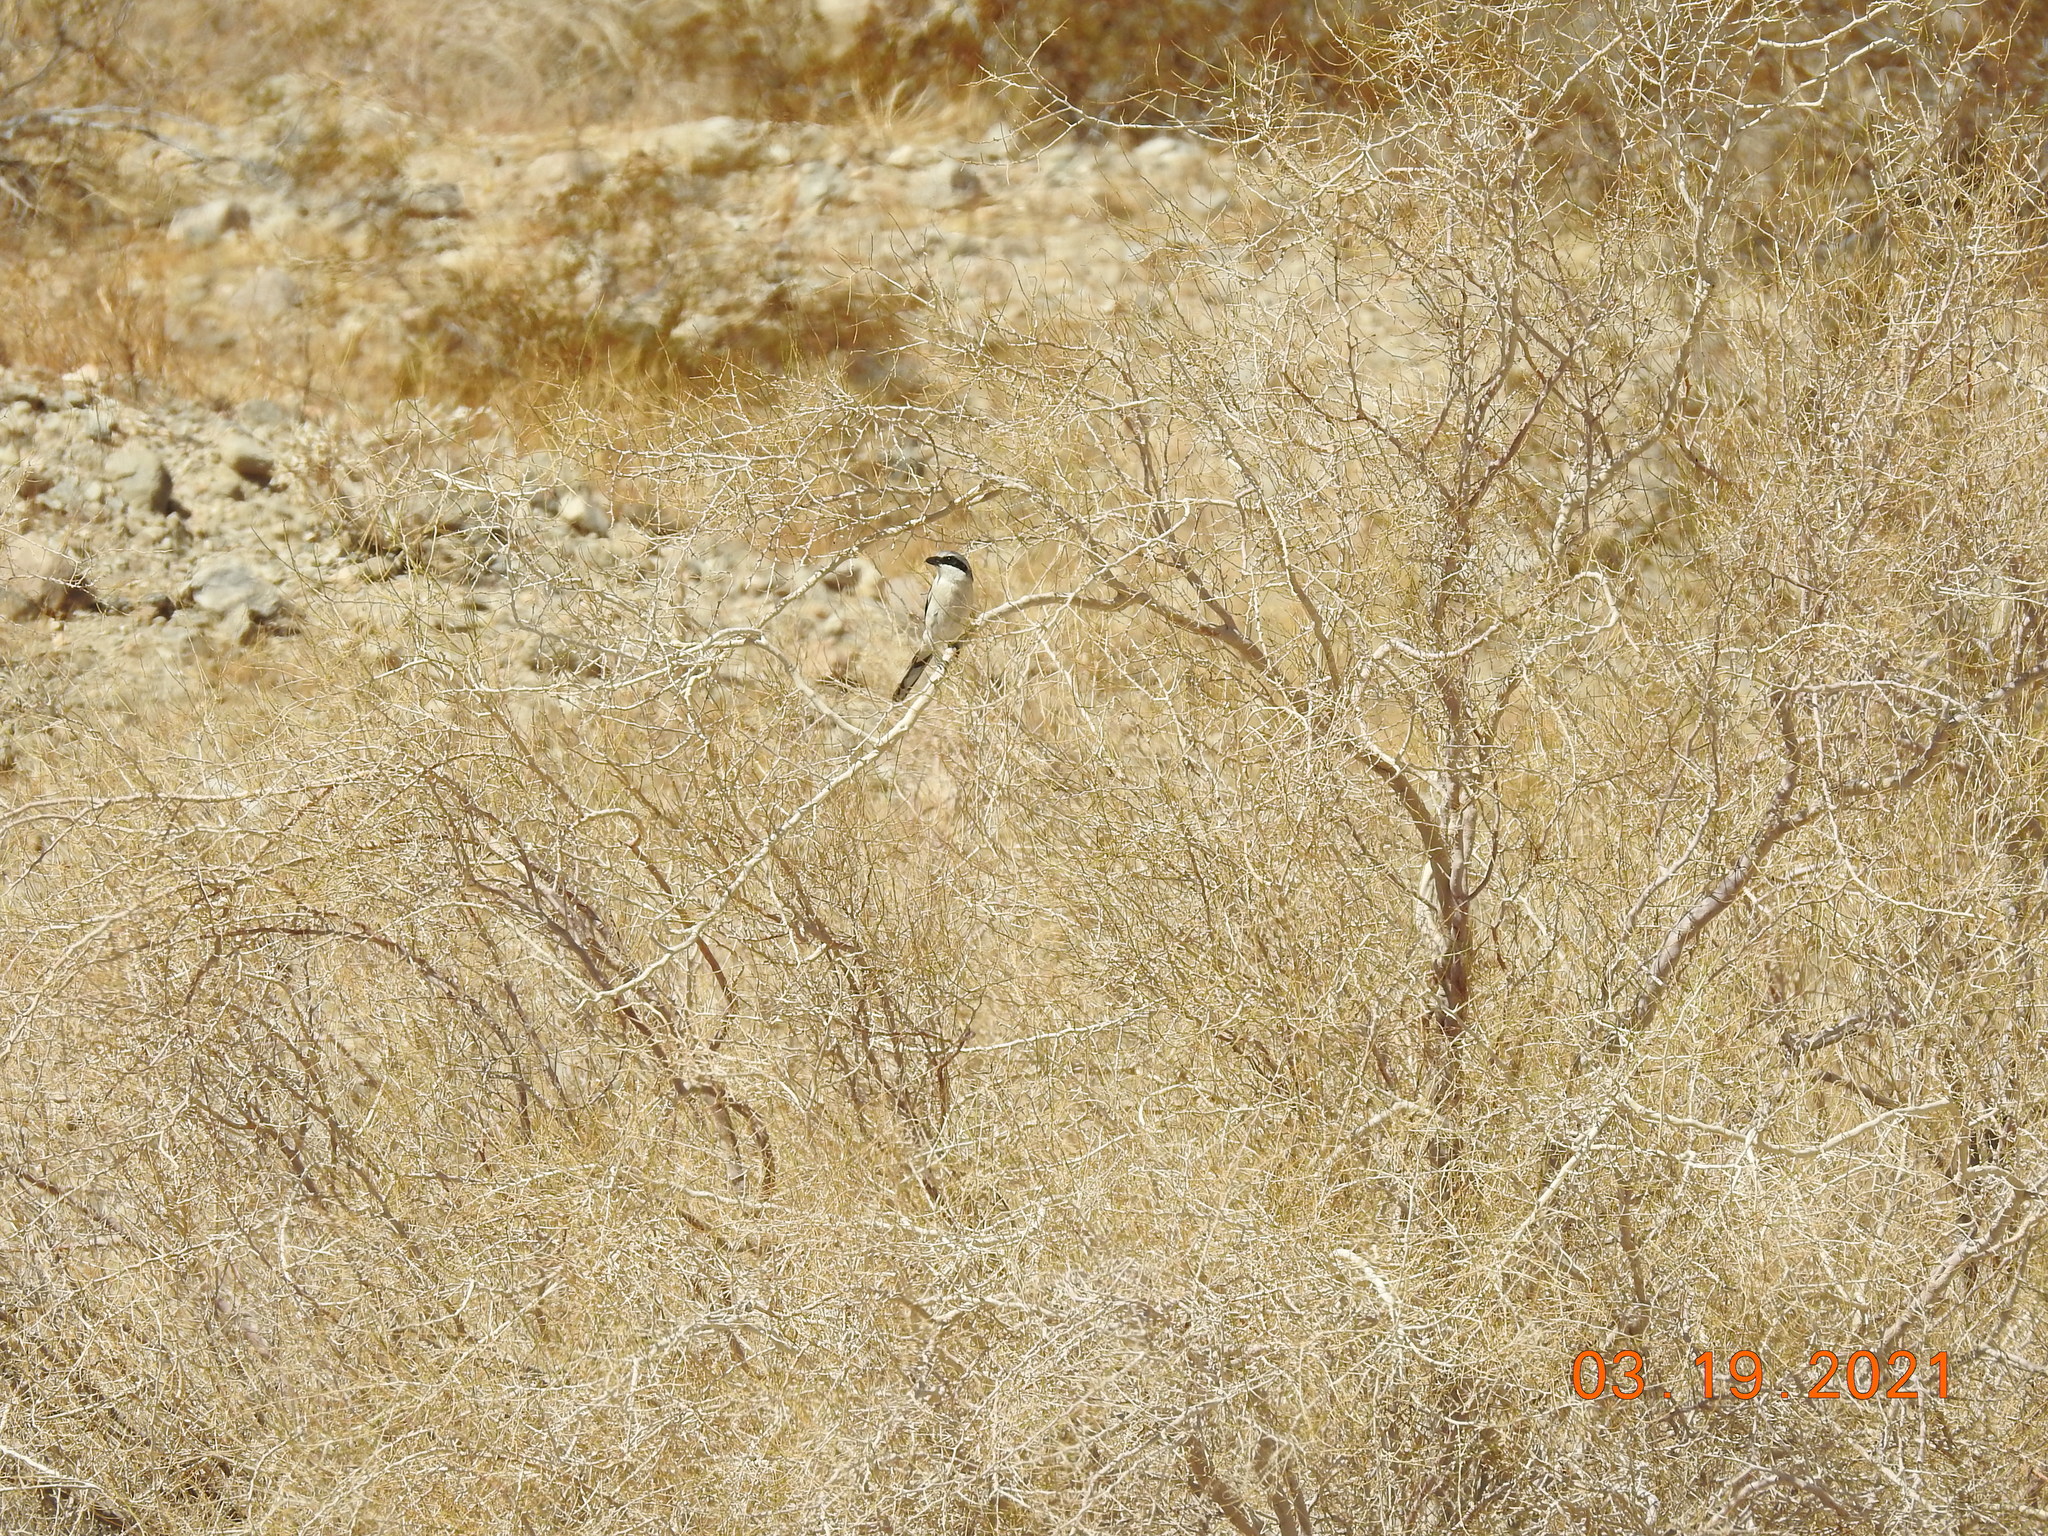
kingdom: Animalia
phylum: Chordata
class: Aves
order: Passeriformes
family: Laniidae
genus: Lanius
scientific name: Lanius ludovicianus
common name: Loggerhead shrike
